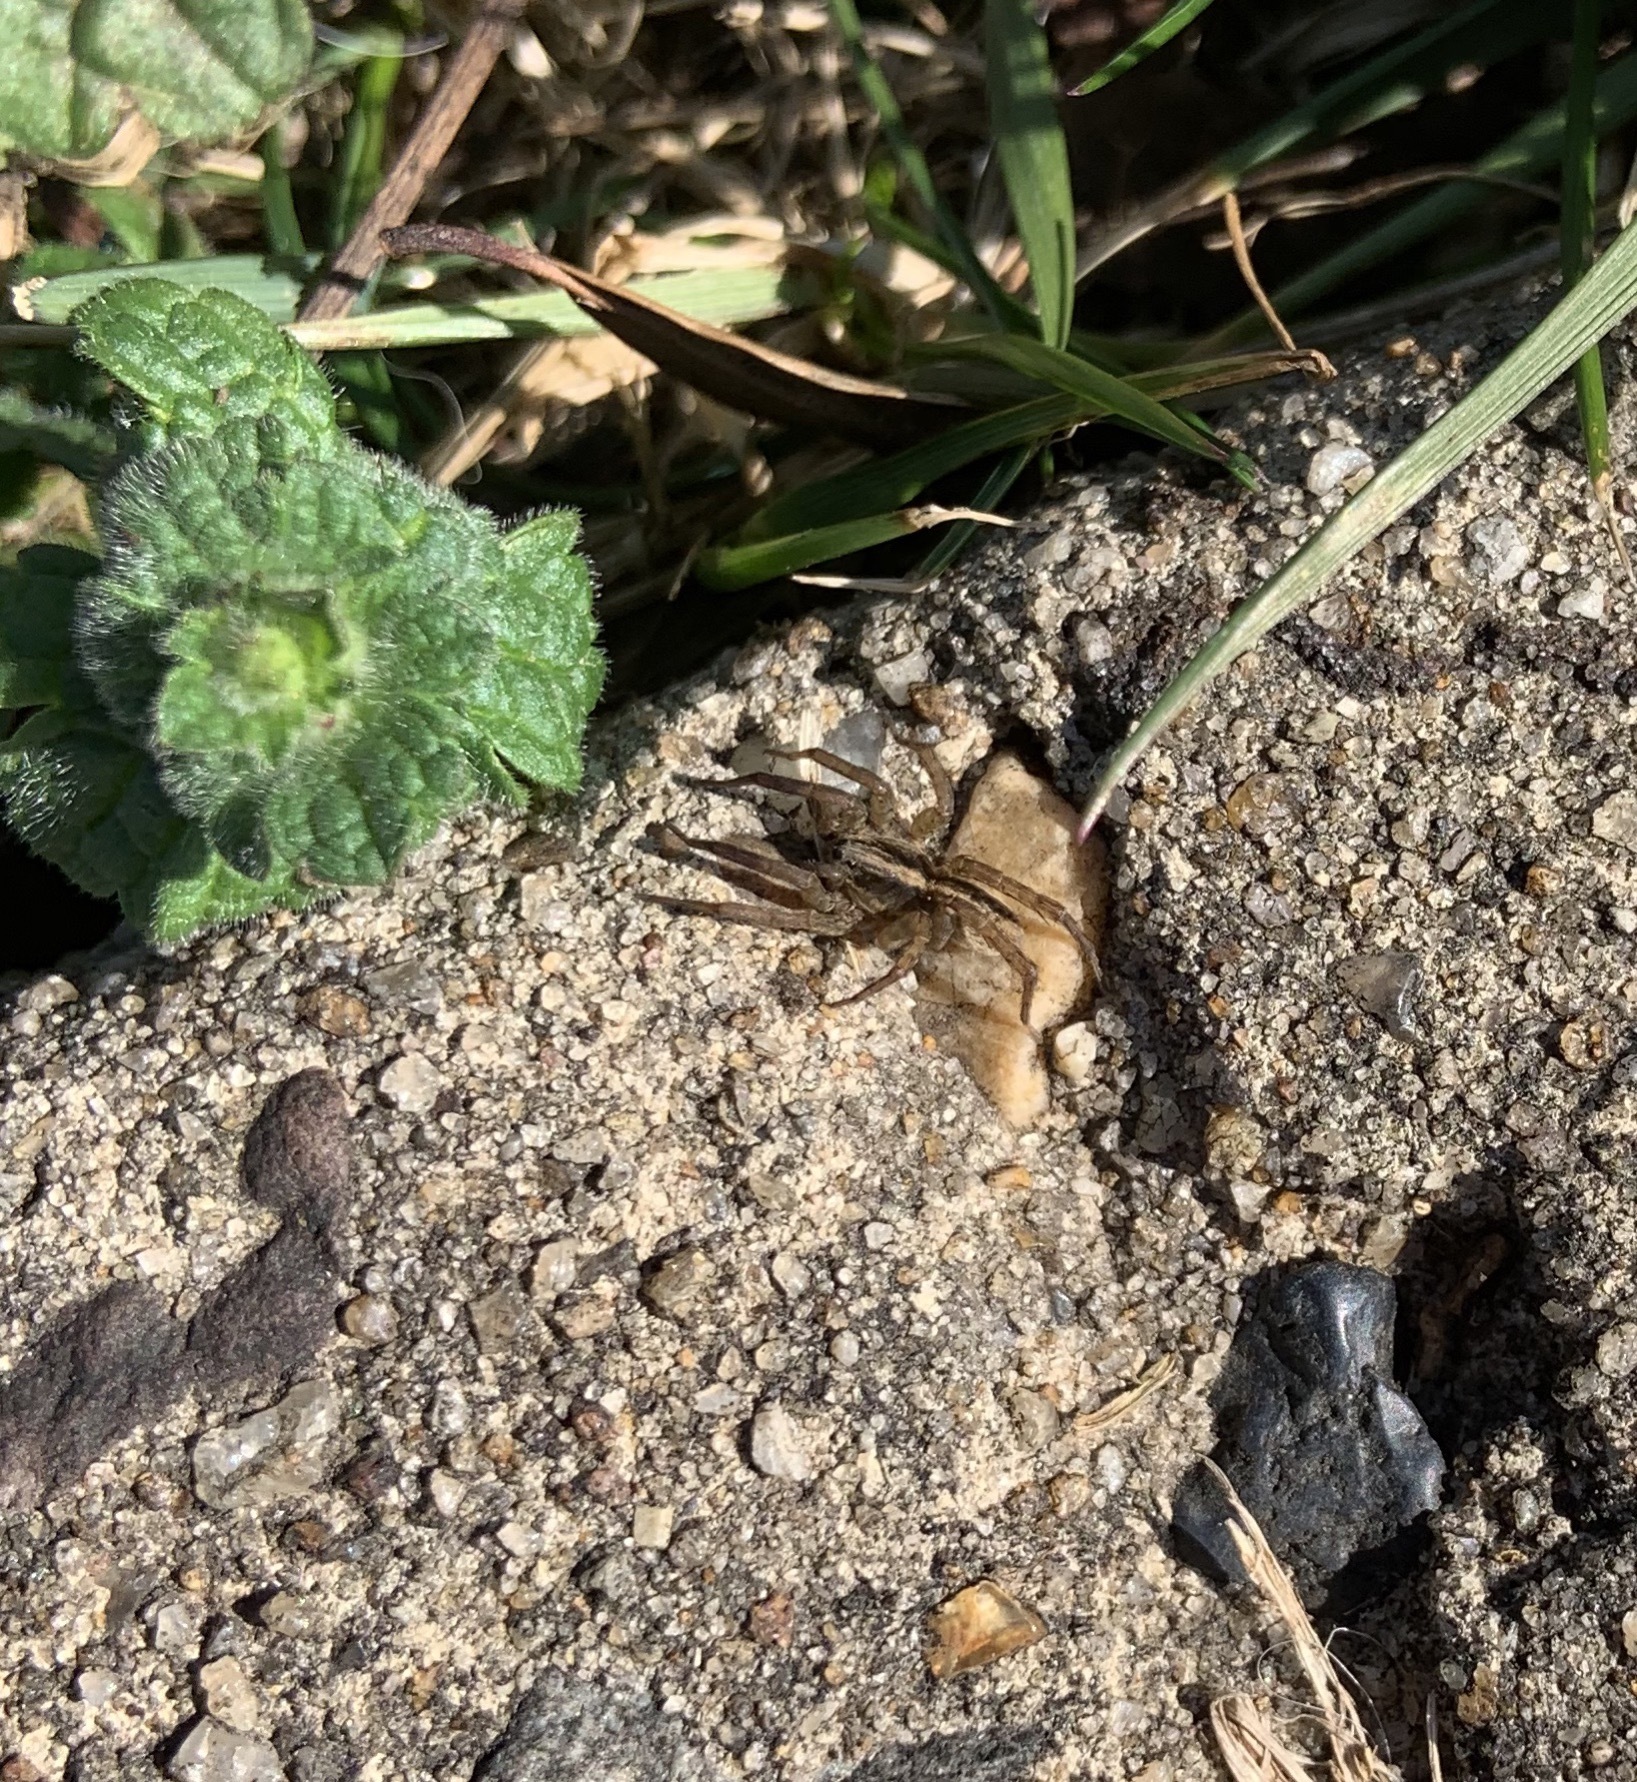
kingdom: Animalia
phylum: Arthropoda
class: Arachnida
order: Araneae
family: Lycosidae
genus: Trochosa
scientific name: Trochosa ruricola
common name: Spider
